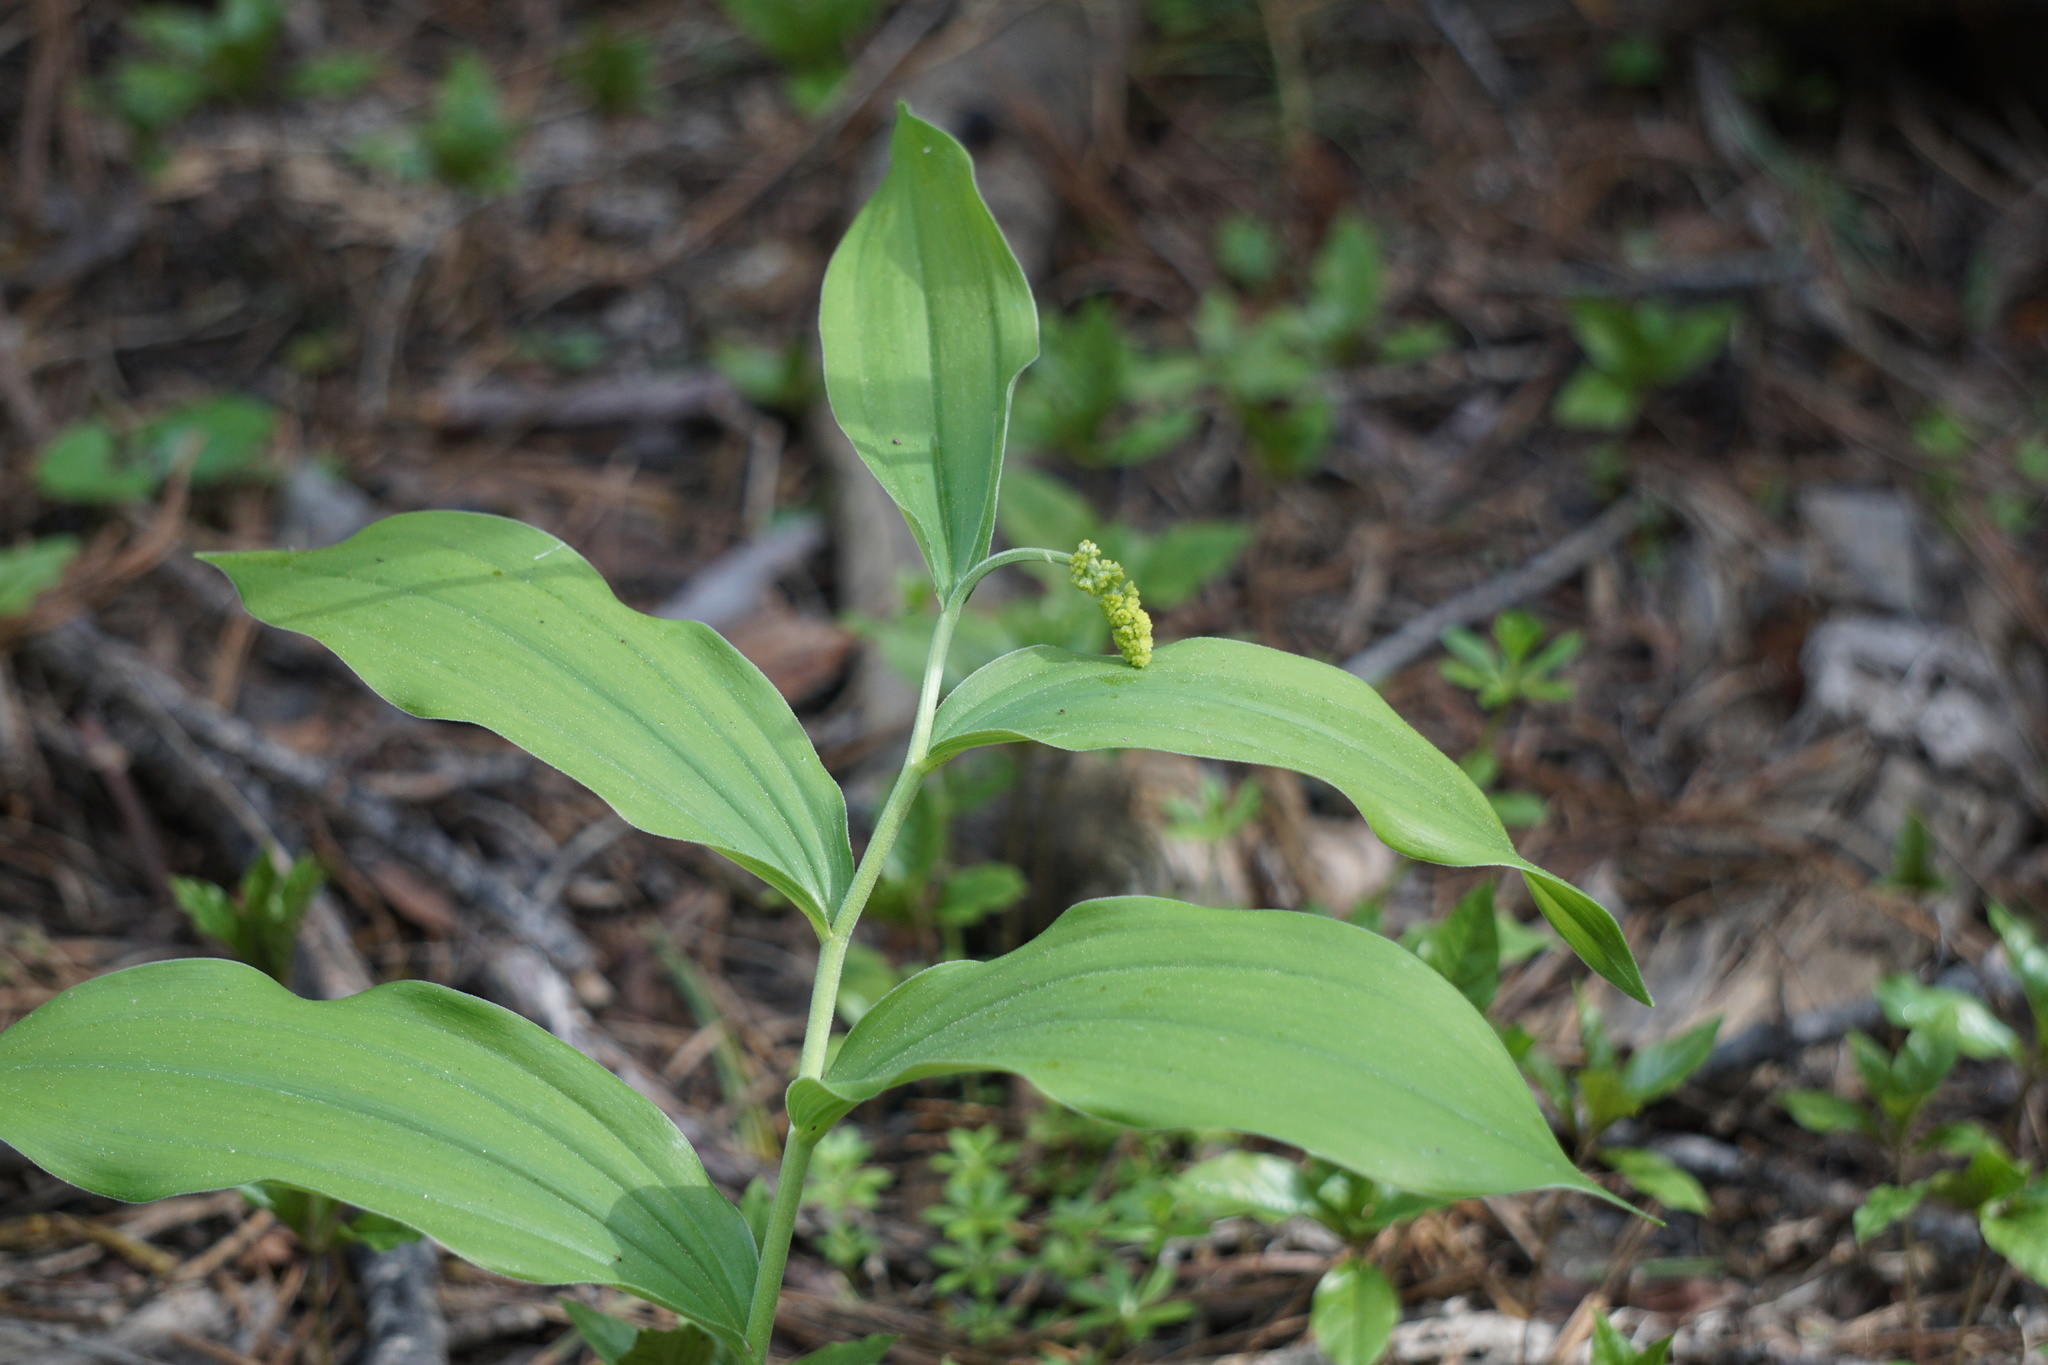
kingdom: Plantae
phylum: Tracheophyta
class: Liliopsida
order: Asparagales
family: Asparagaceae
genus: Maianthemum
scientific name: Maianthemum racemosum
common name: False spikenard
